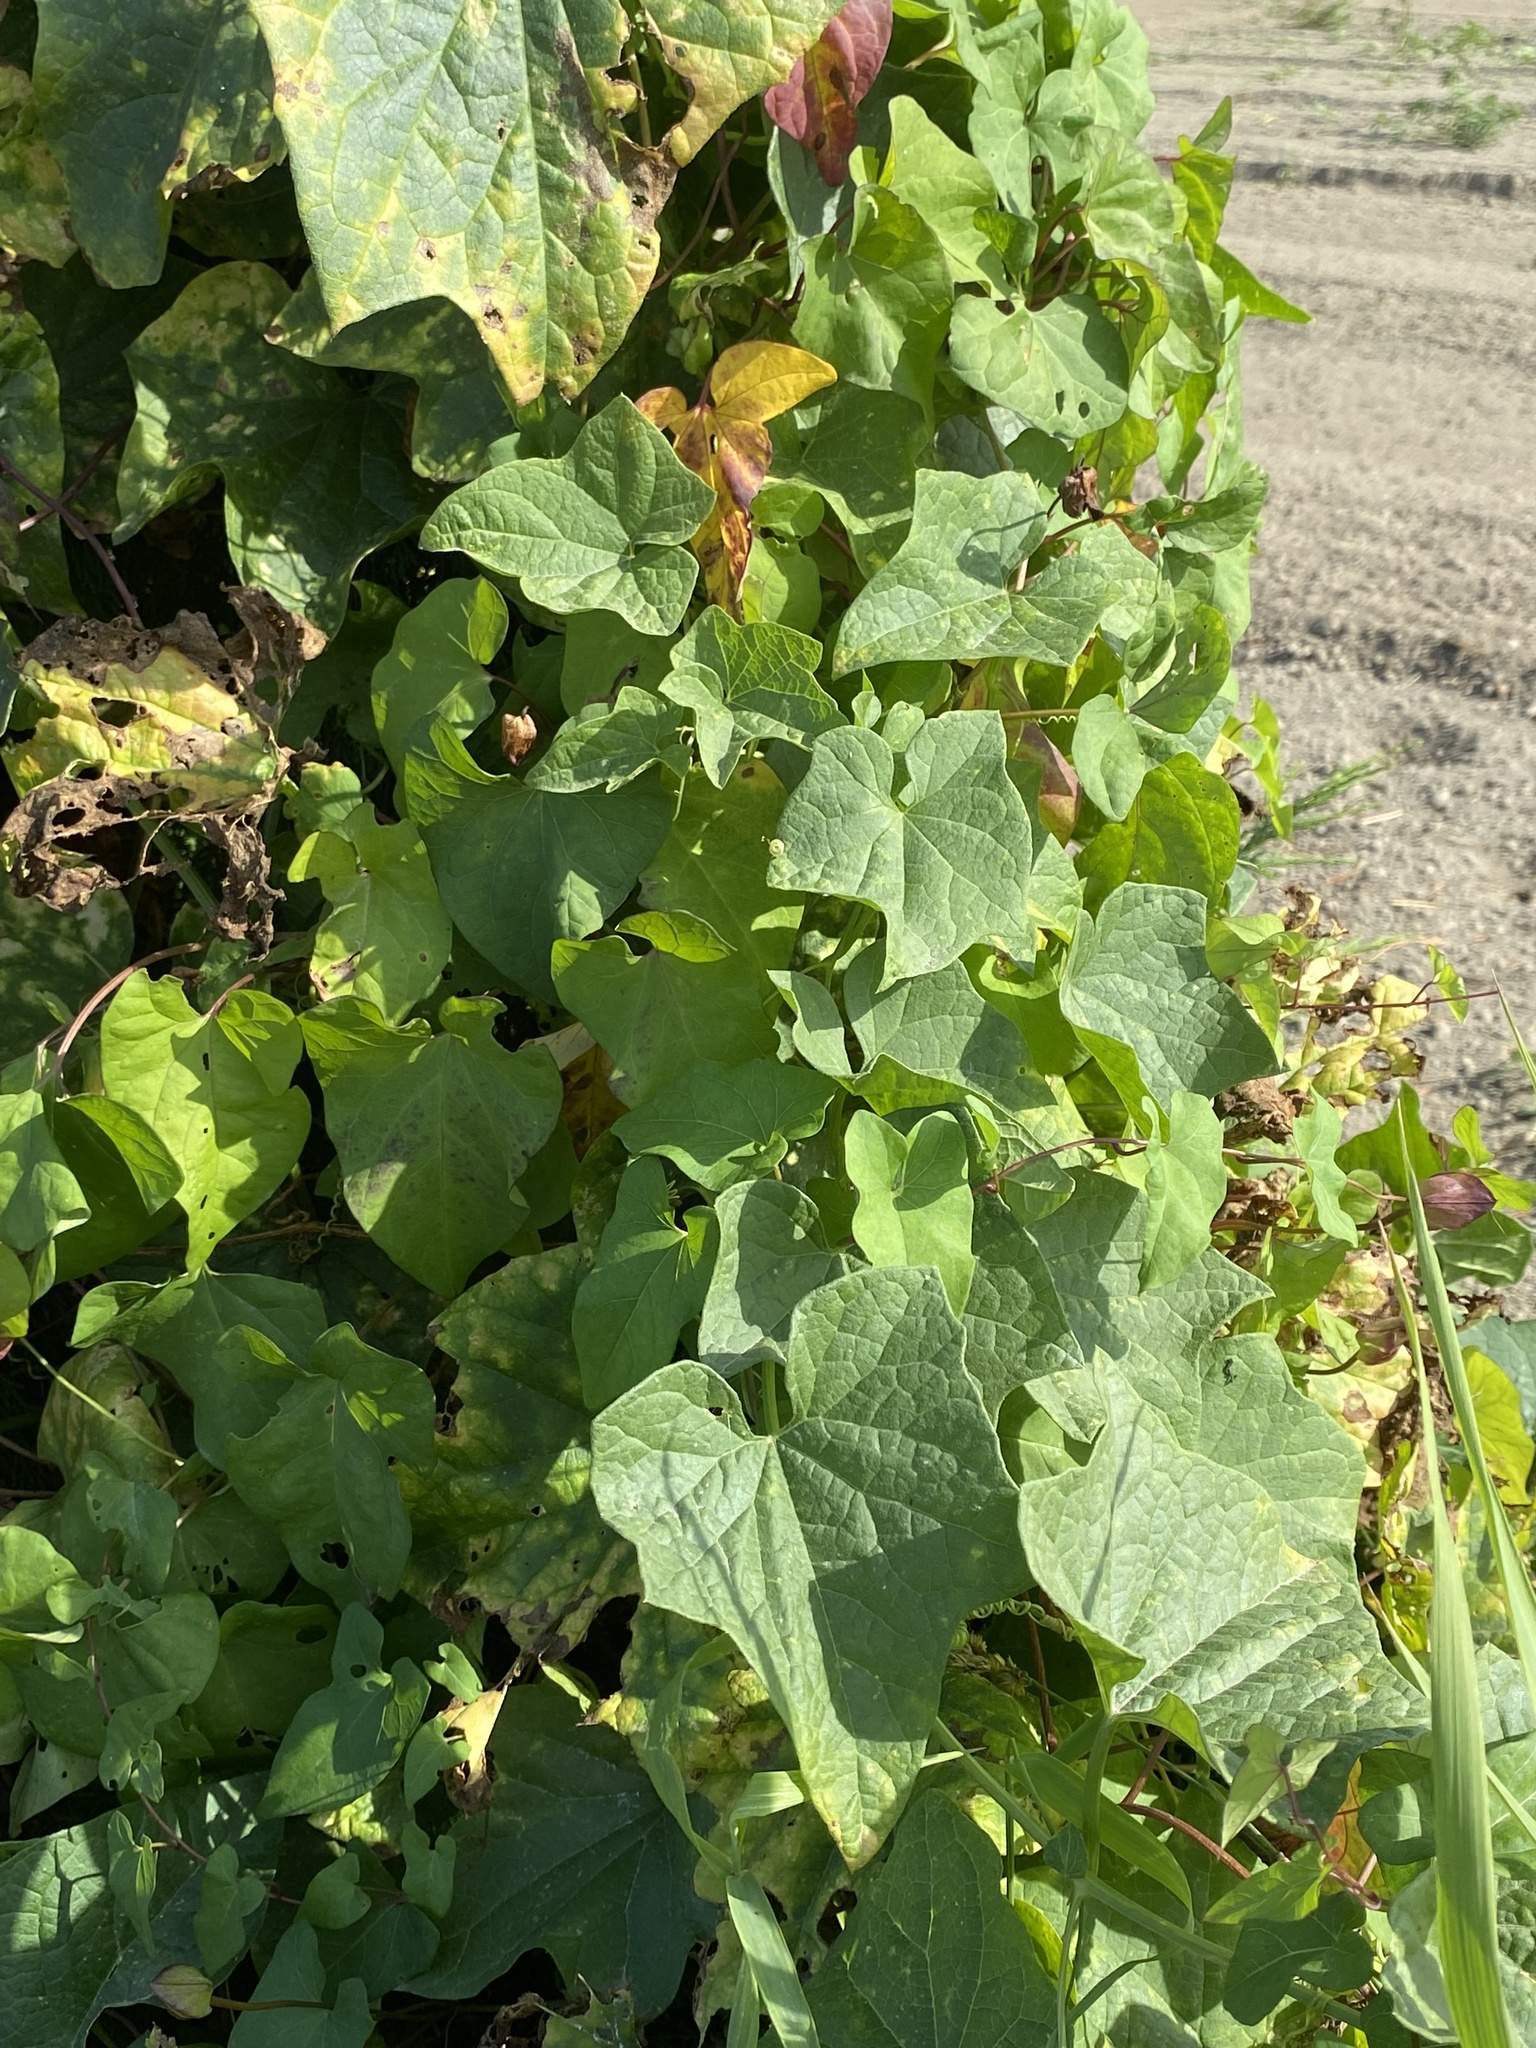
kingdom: Plantae
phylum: Tracheophyta
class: Magnoliopsida
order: Cucurbitales
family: Cucurbitaceae
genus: Marah
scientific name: Marah oregana
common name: Coastal manroot
